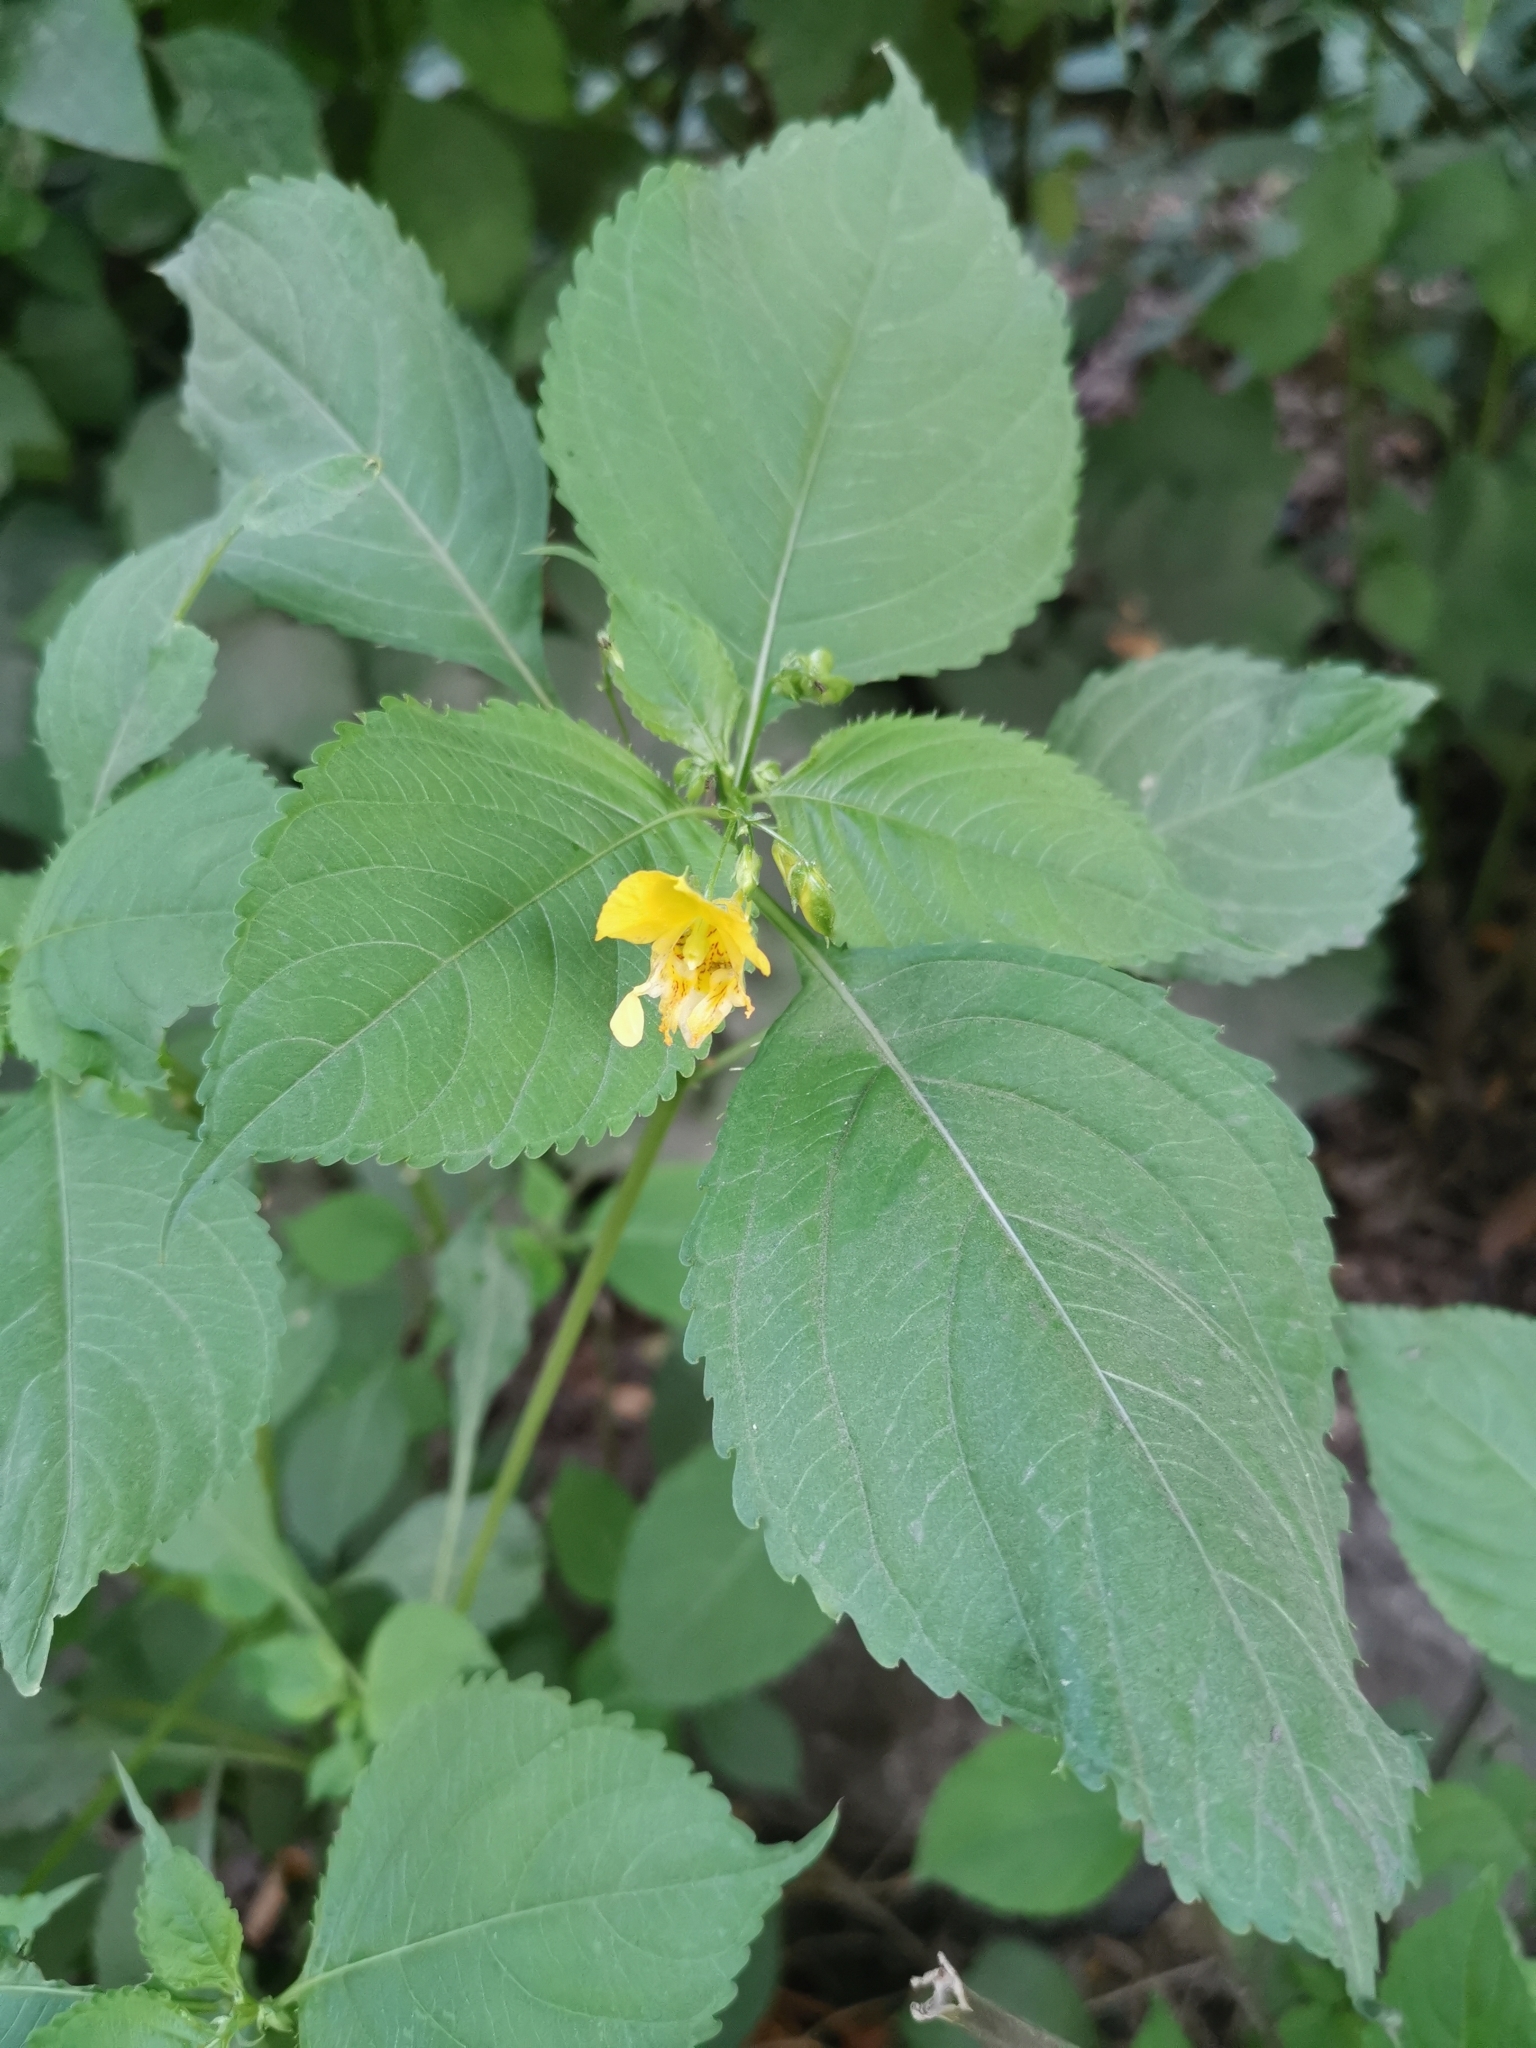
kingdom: Plantae
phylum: Tracheophyta
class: Magnoliopsida
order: Ericales
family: Balsaminaceae
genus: Impatiens
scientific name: Impatiens edgeworthii
